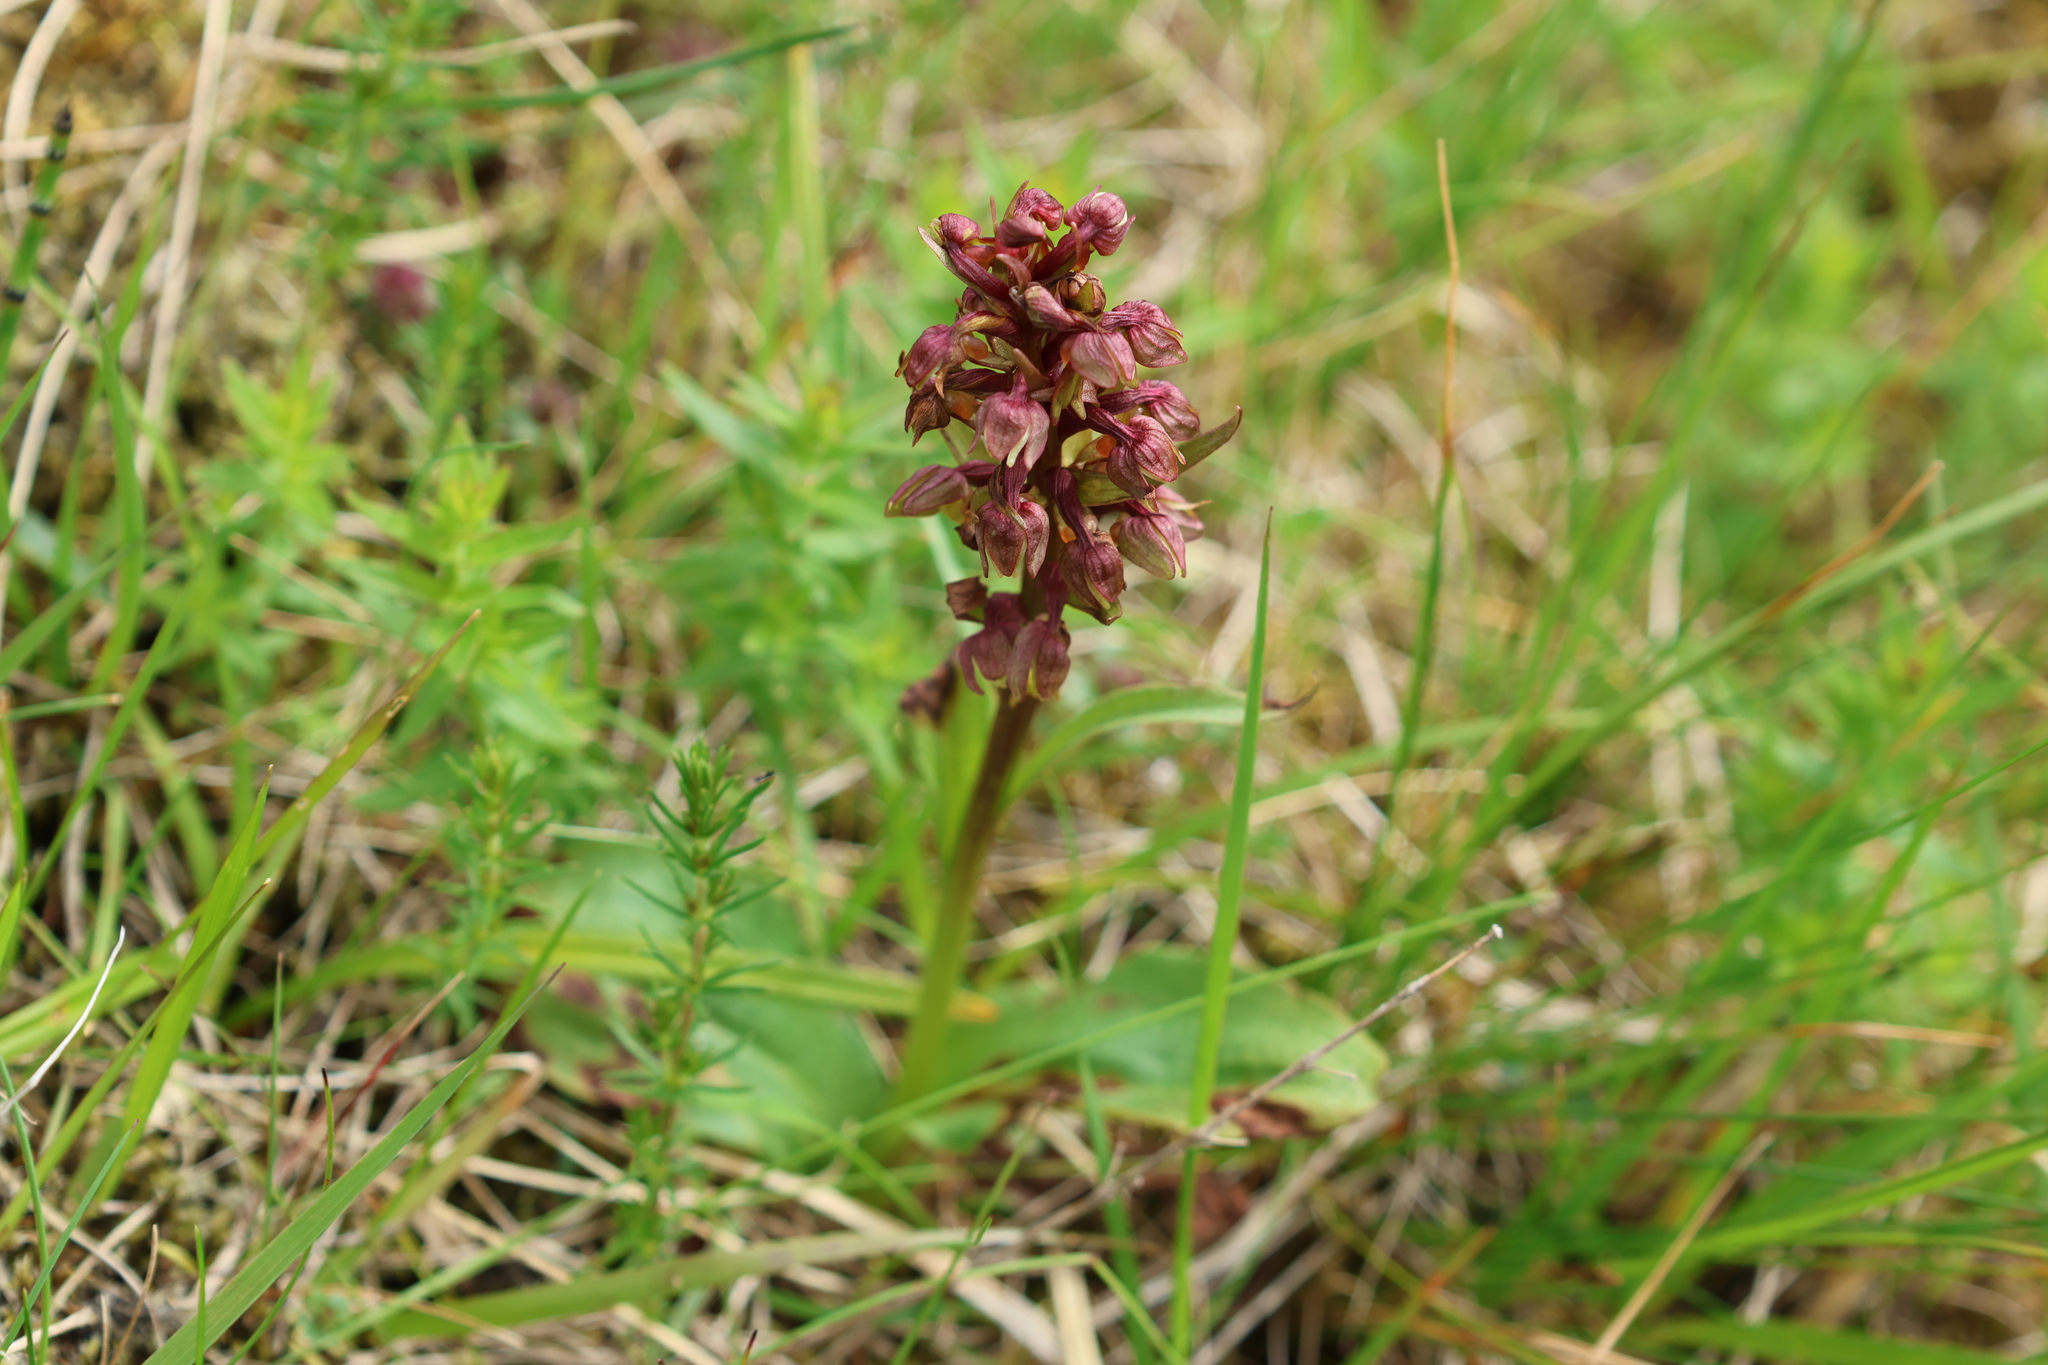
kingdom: Plantae
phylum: Tracheophyta
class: Liliopsida
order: Asparagales
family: Orchidaceae
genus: Dactylorhiza
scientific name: Dactylorhiza viridis
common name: Longbract frog orchid
